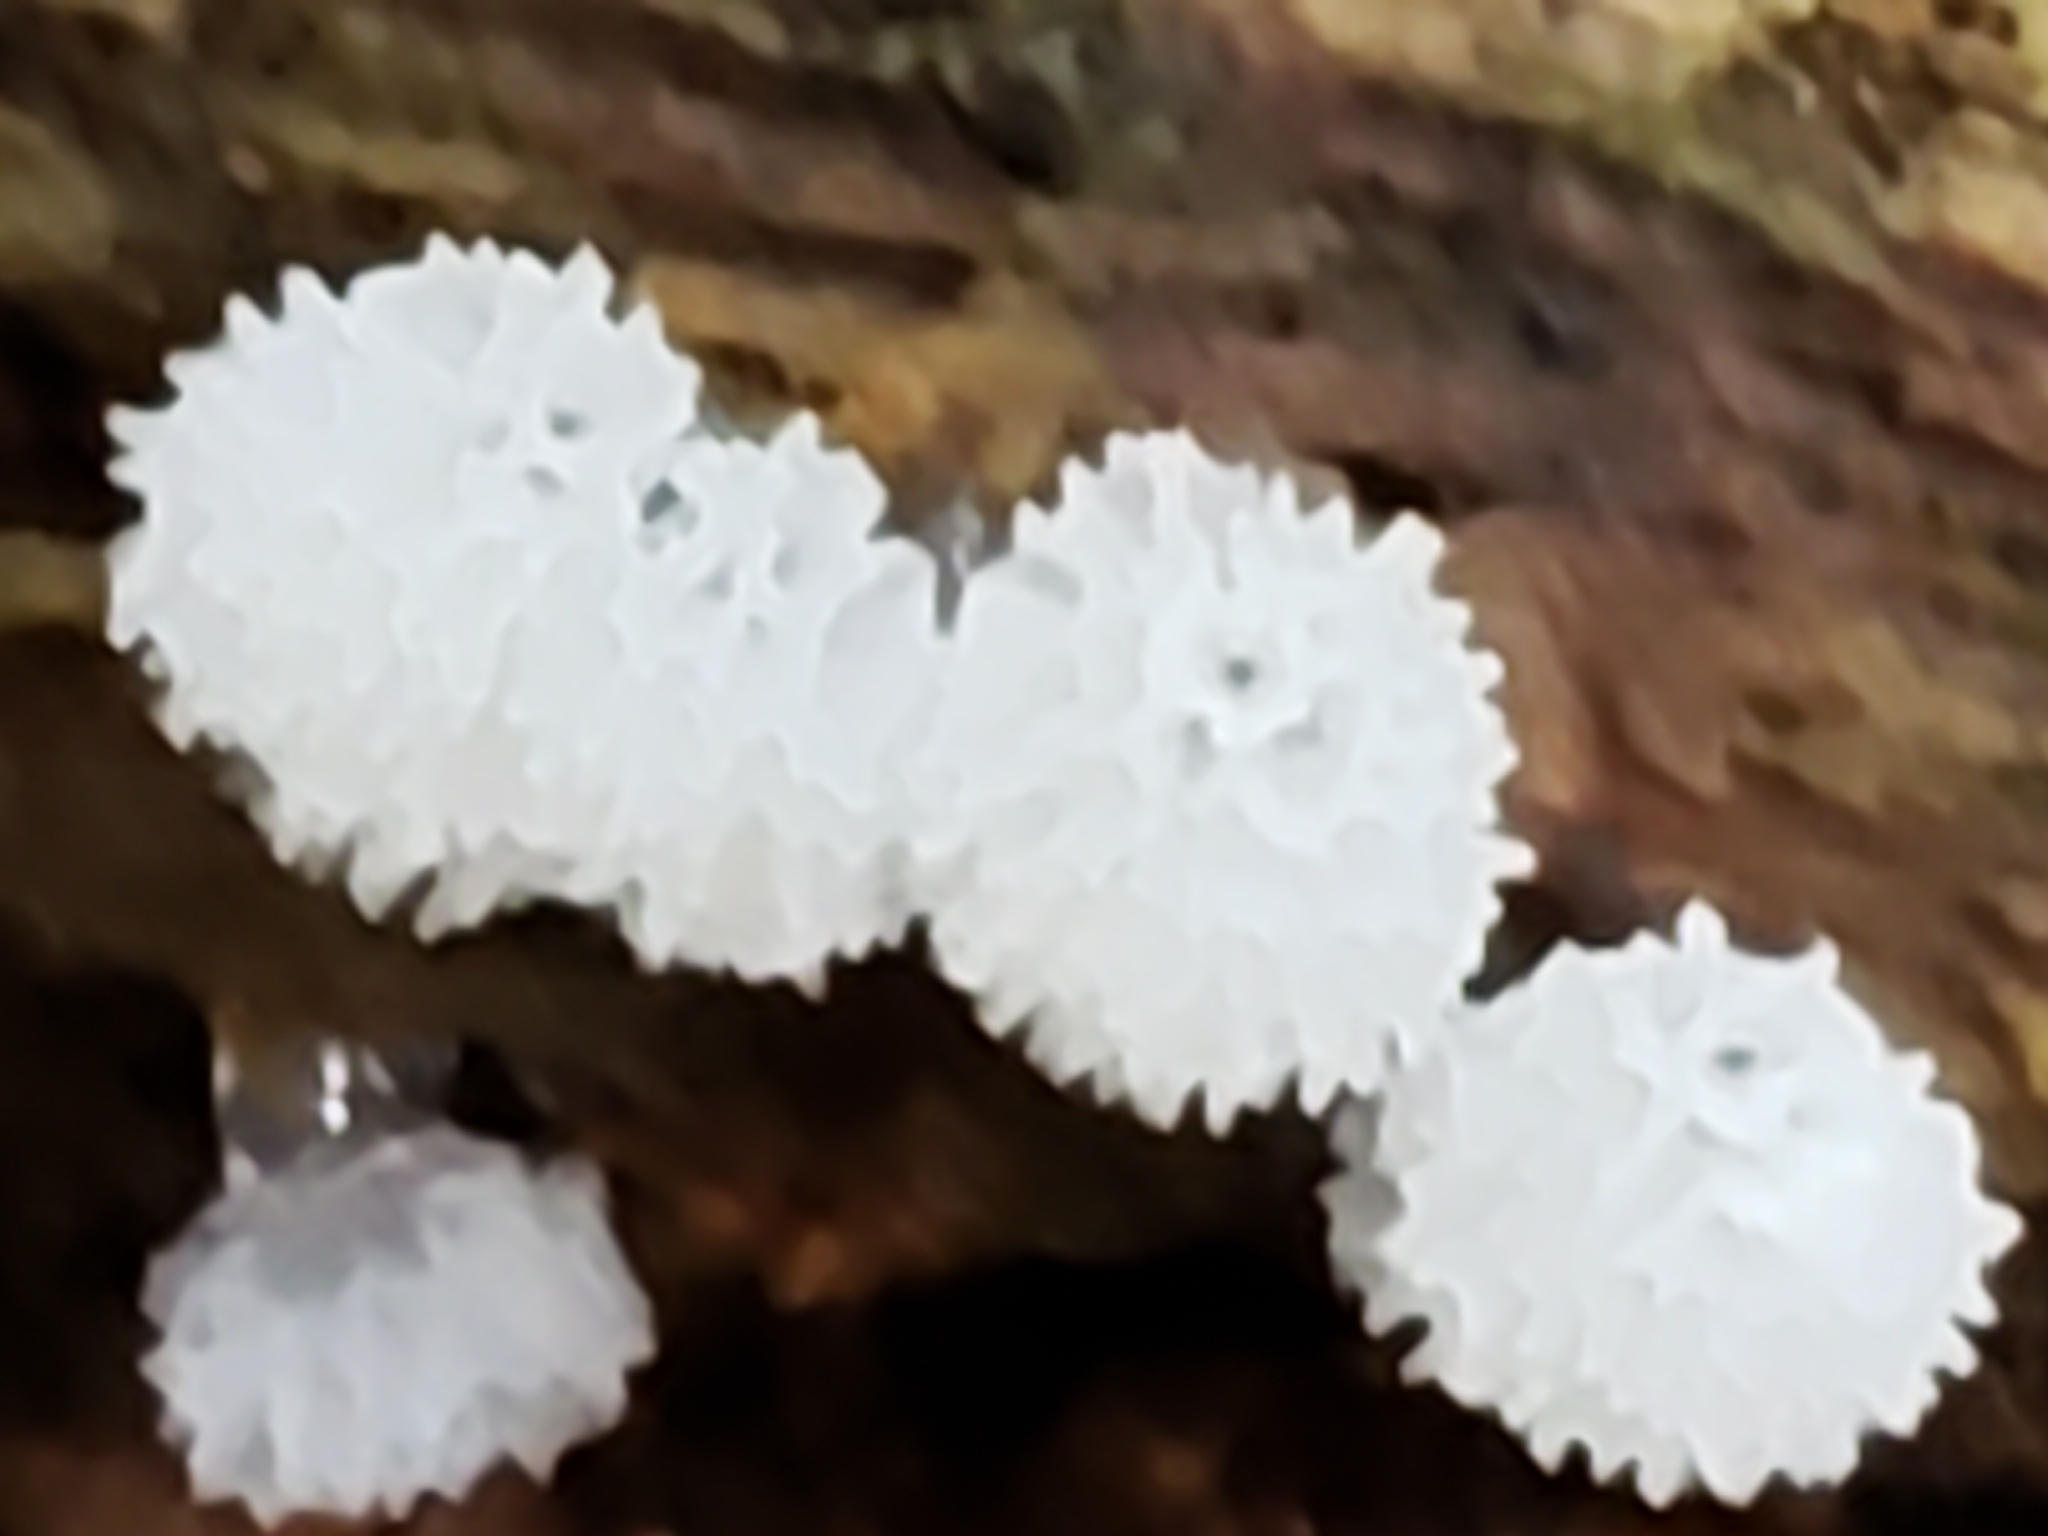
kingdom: Protozoa
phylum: Mycetozoa
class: Protosteliomycetes
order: Ceratiomyxales
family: Ceratiomyxaceae
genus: Ceratiomyxa
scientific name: Ceratiomyxa fruticulosa
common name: Honeycomb coral slime mold
